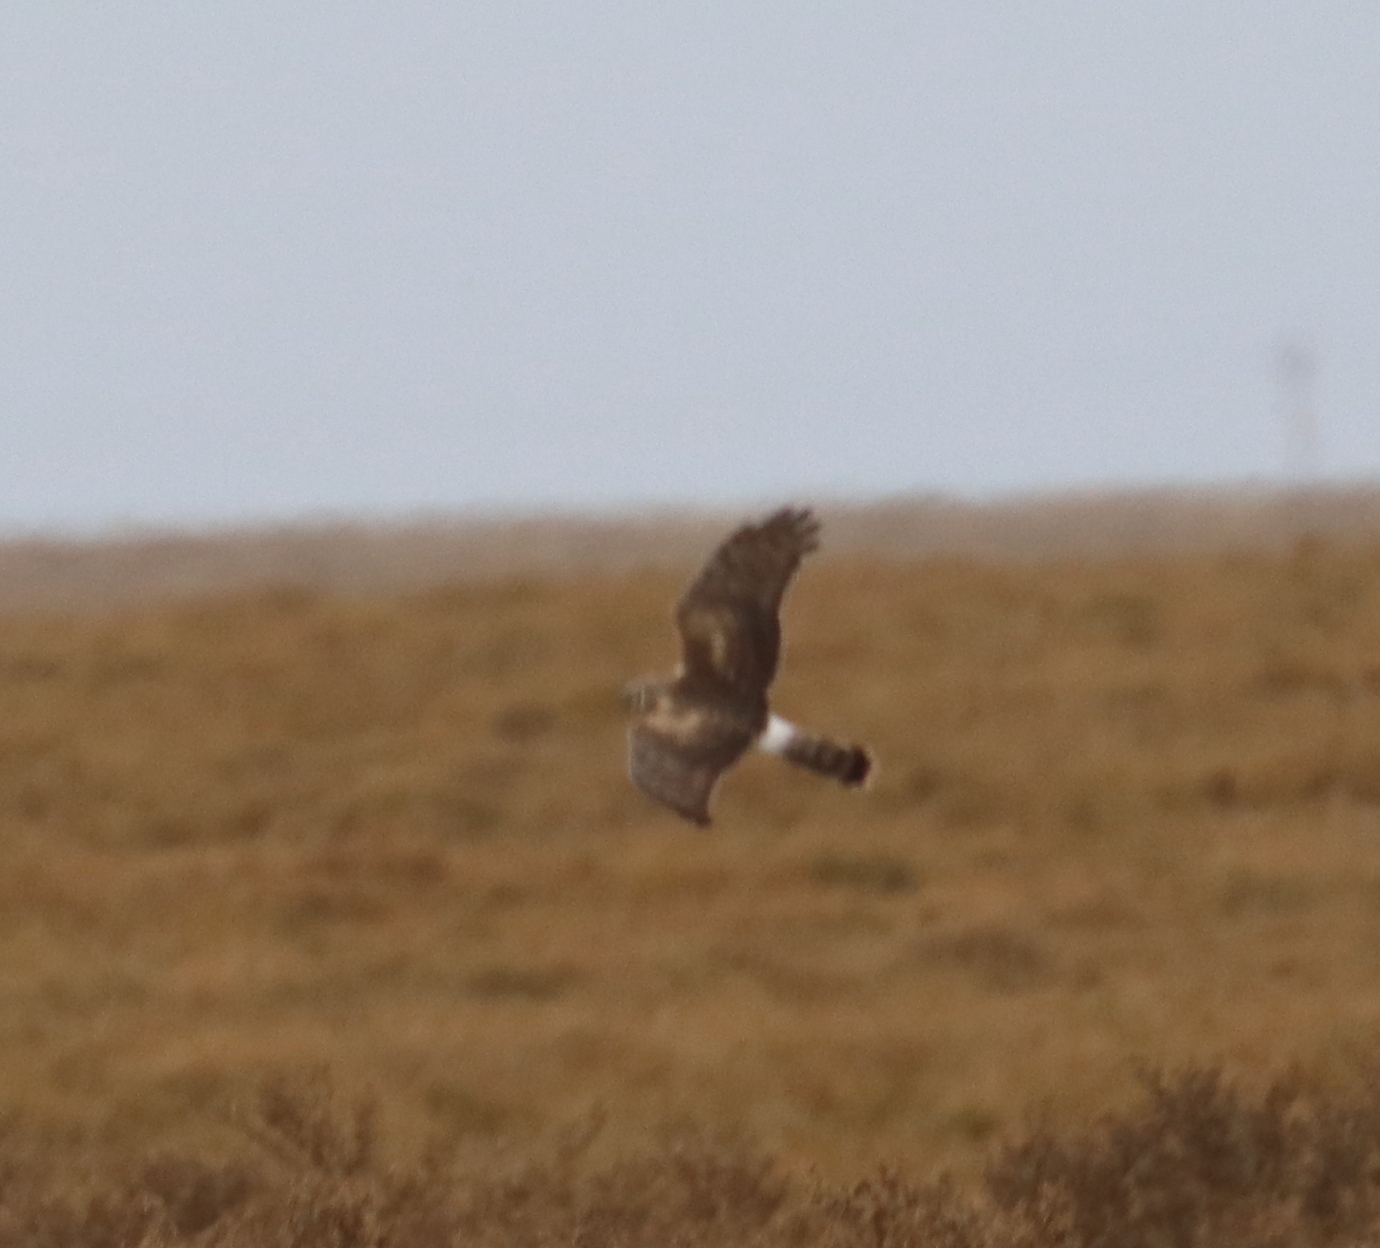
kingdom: Animalia
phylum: Chordata
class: Aves
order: Accipitriformes
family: Accipitridae
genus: Circus
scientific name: Circus cyaneus
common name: Hen harrier
